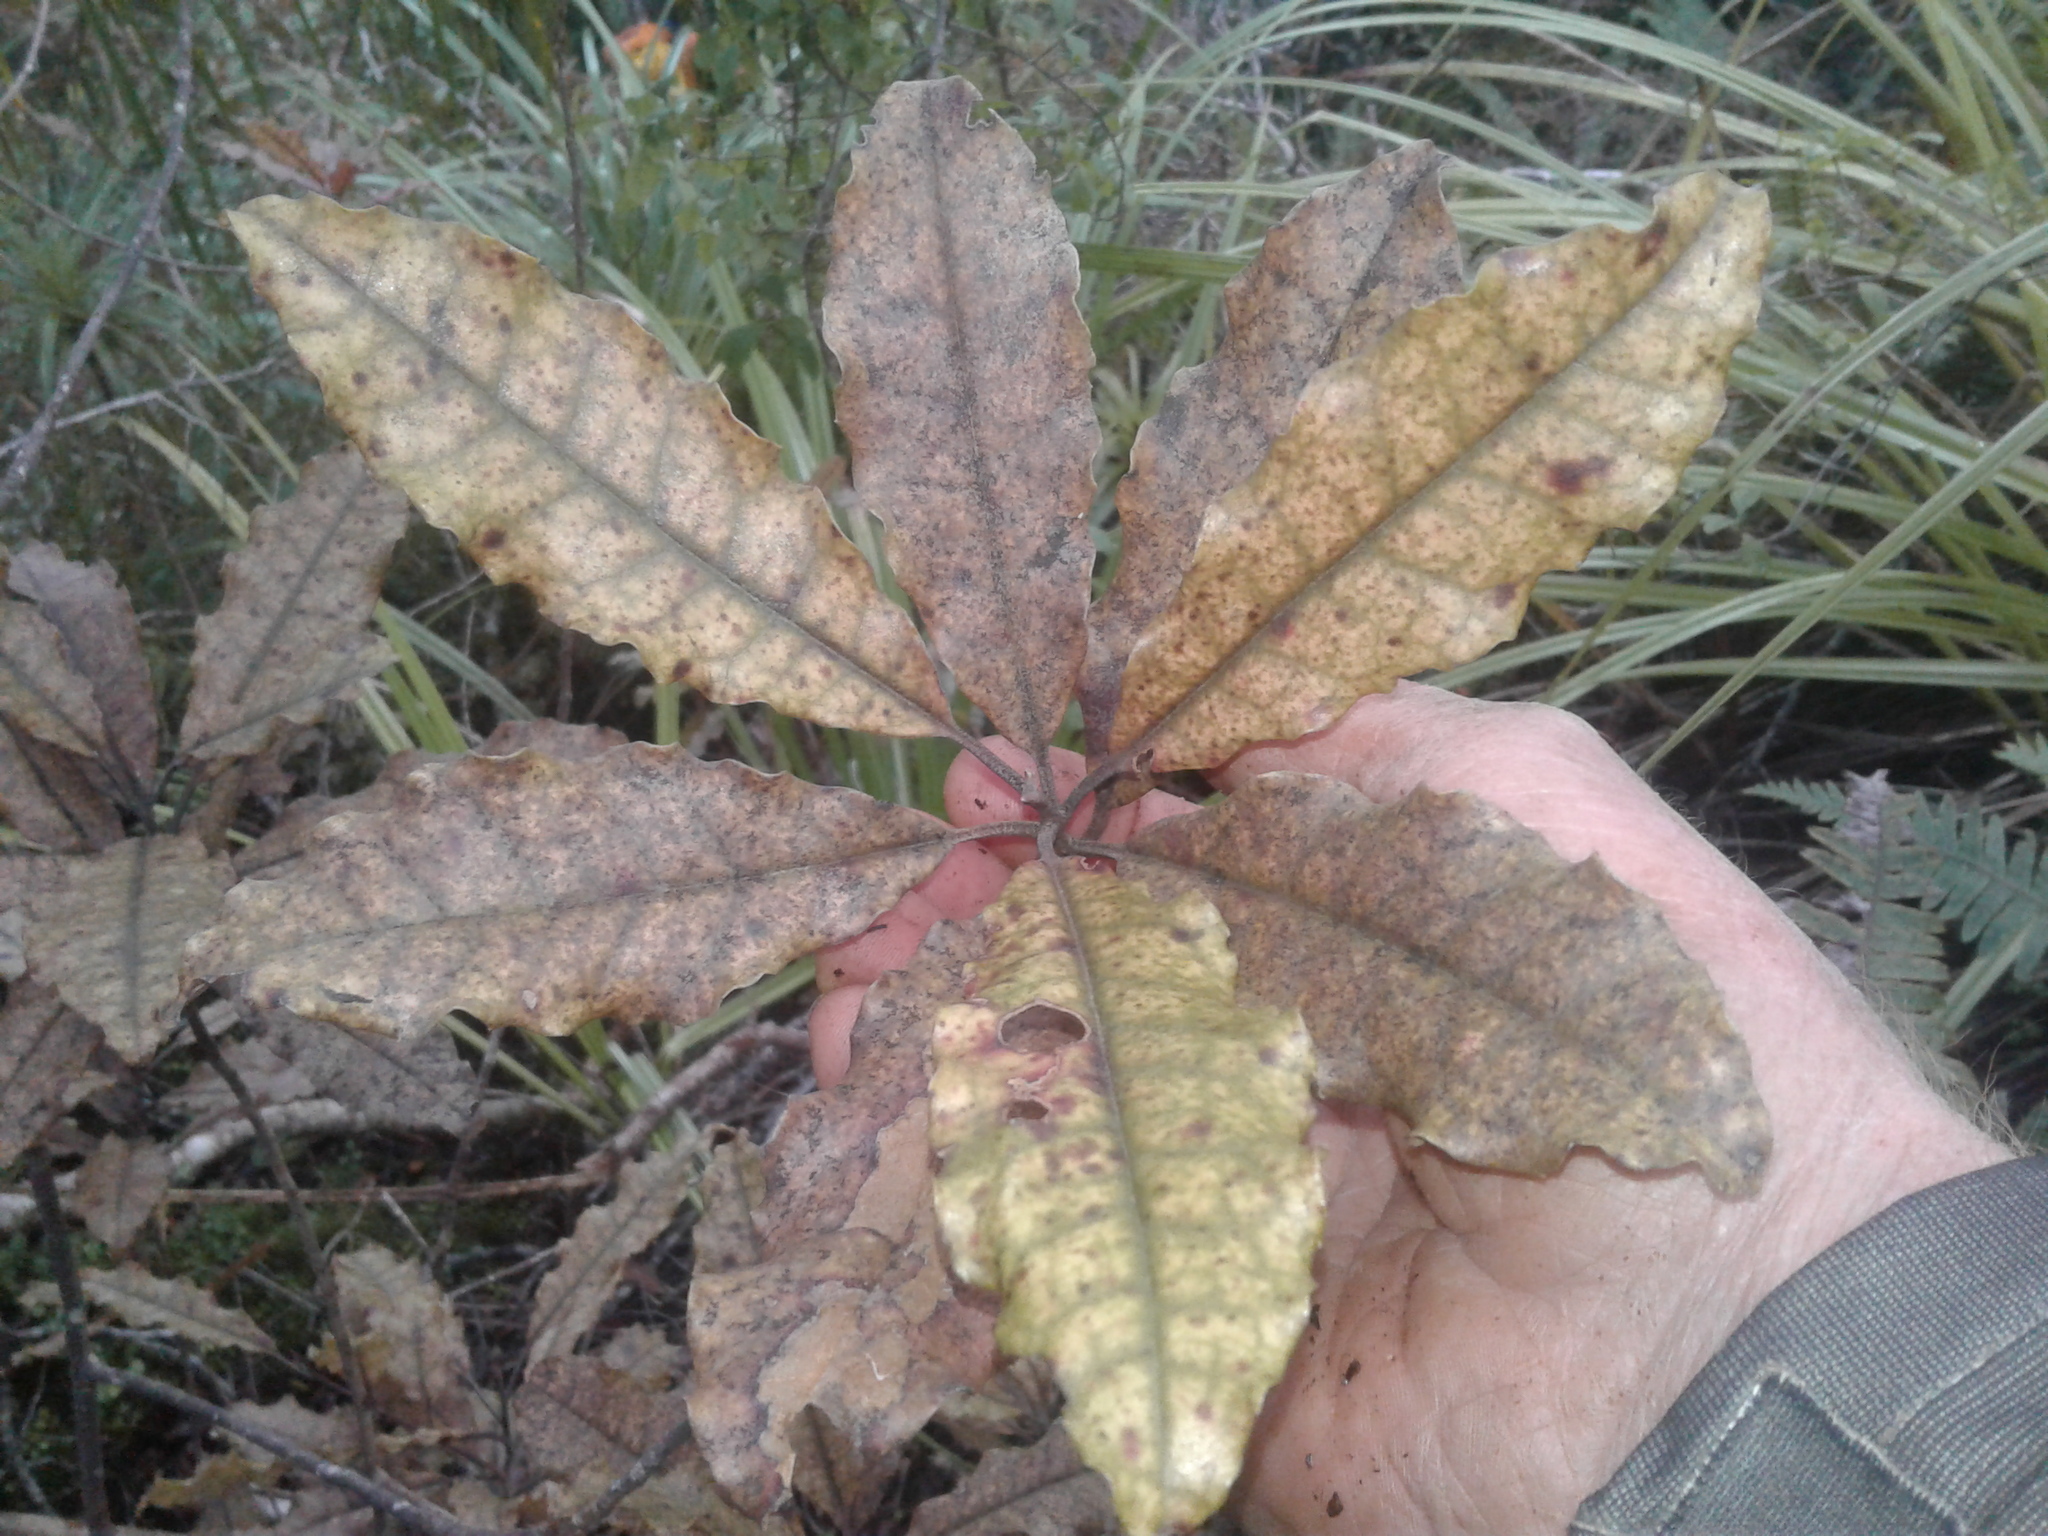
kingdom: Plantae
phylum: Tracheophyta
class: Magnoliopsida
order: Paracryphiales
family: Paracryphiaceae
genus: Quintinia
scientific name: Quintinia serrata
